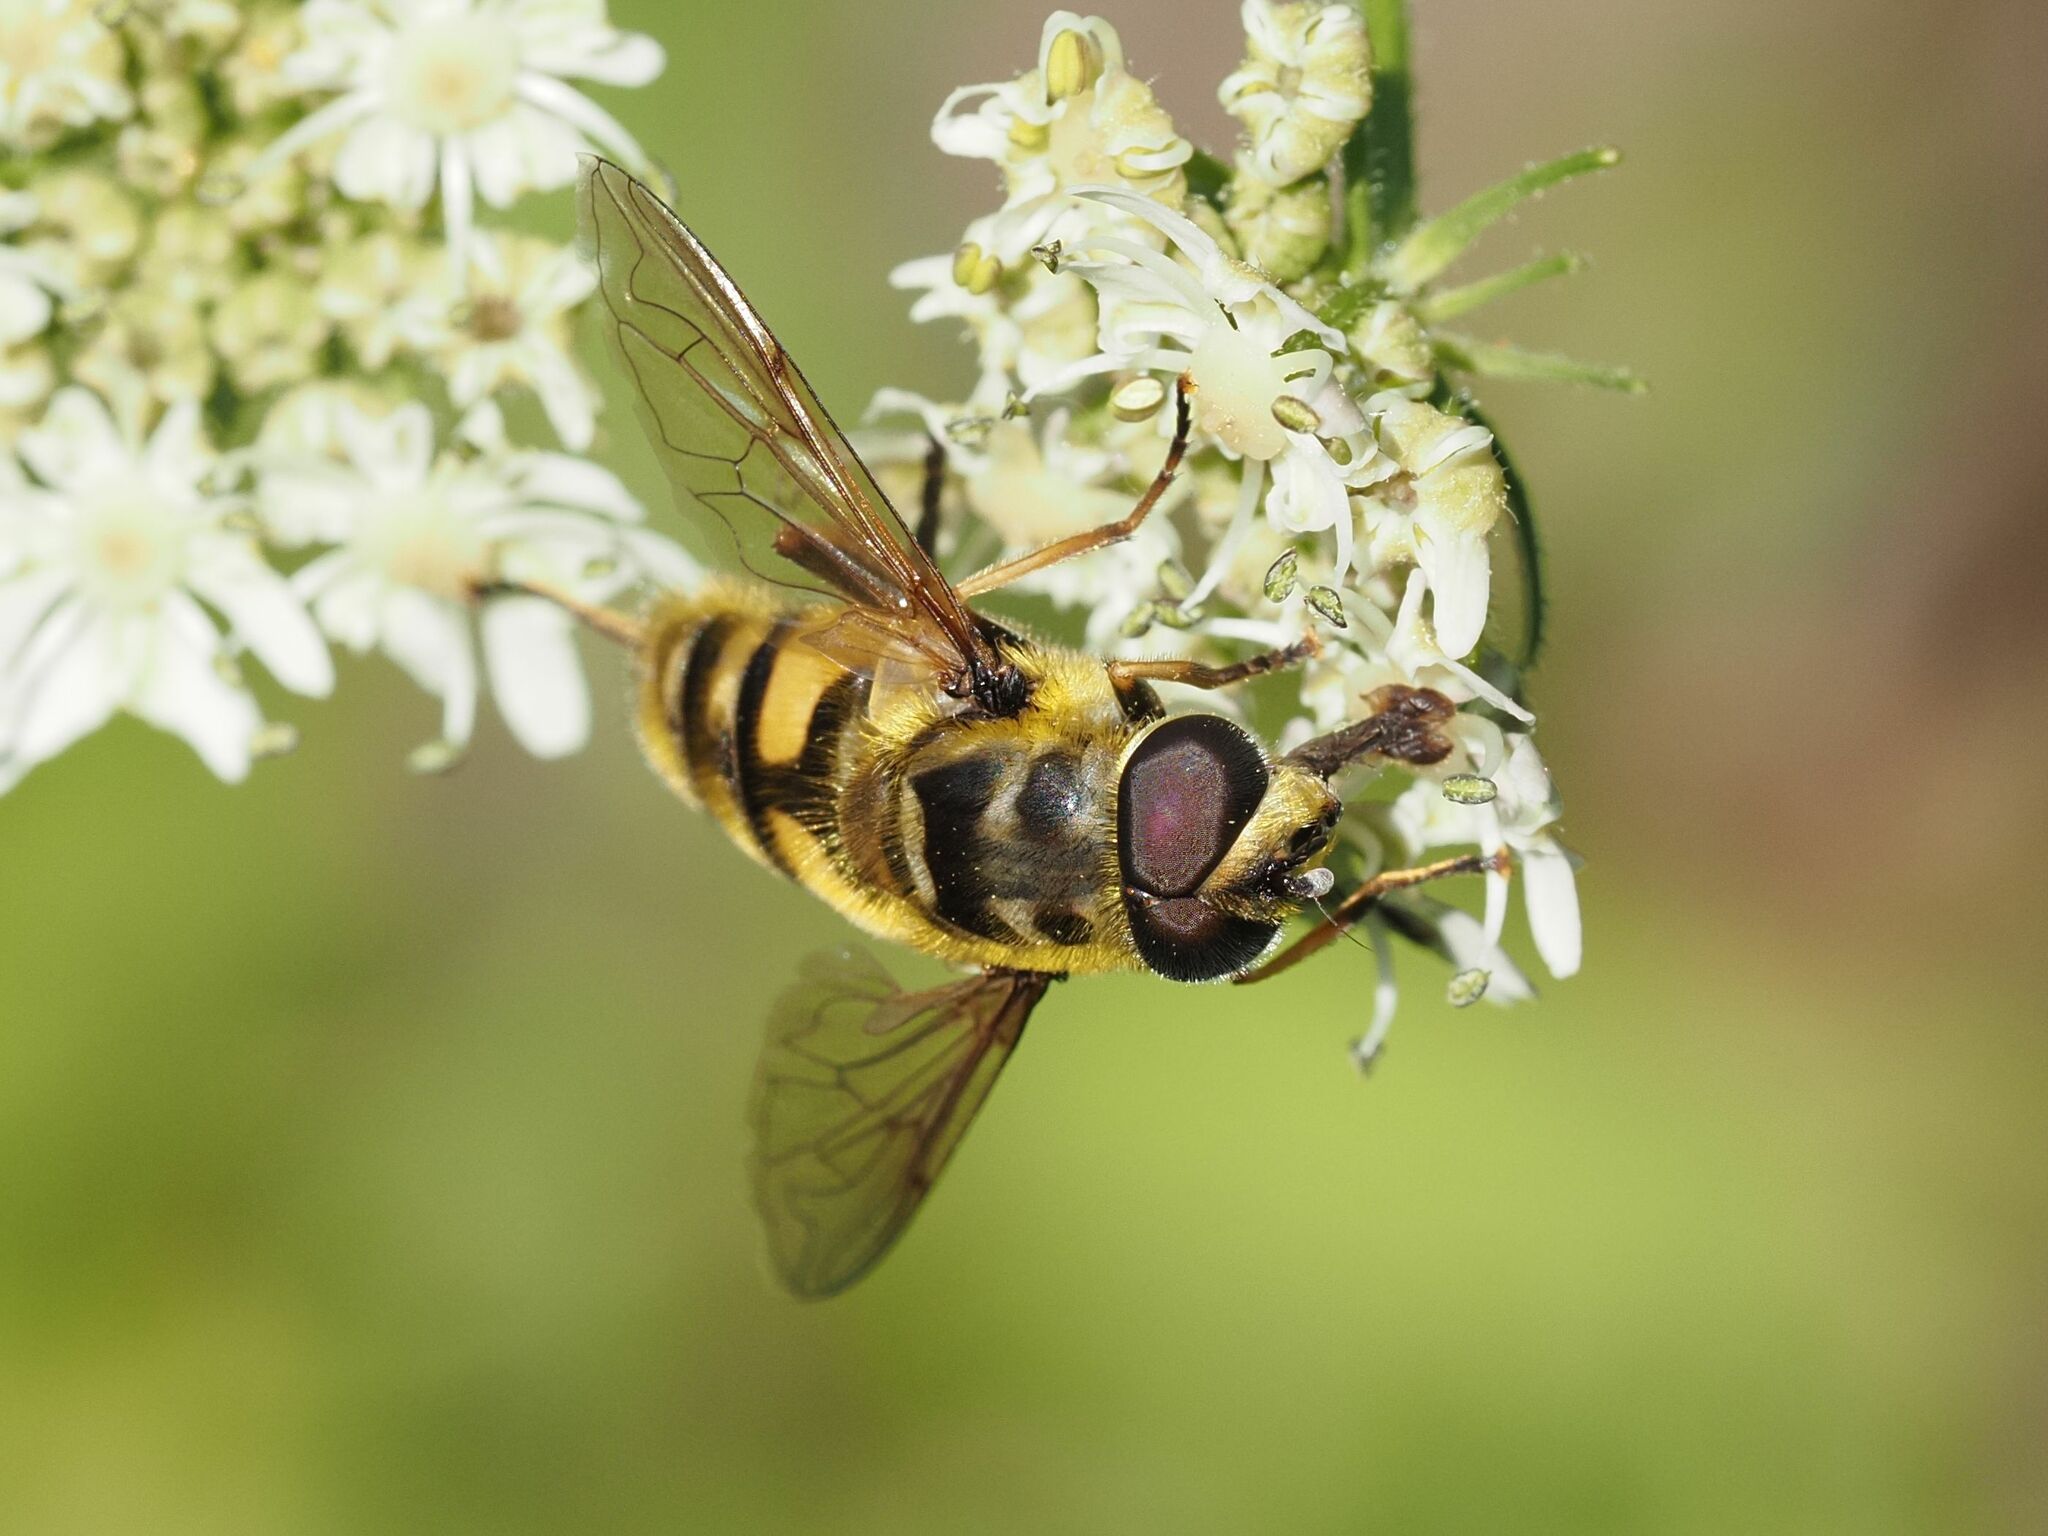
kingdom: Animalia
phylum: Arthropoda
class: Insecta
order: Diptera
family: Syrphidae
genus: Myathropa
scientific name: Myathropa florea
